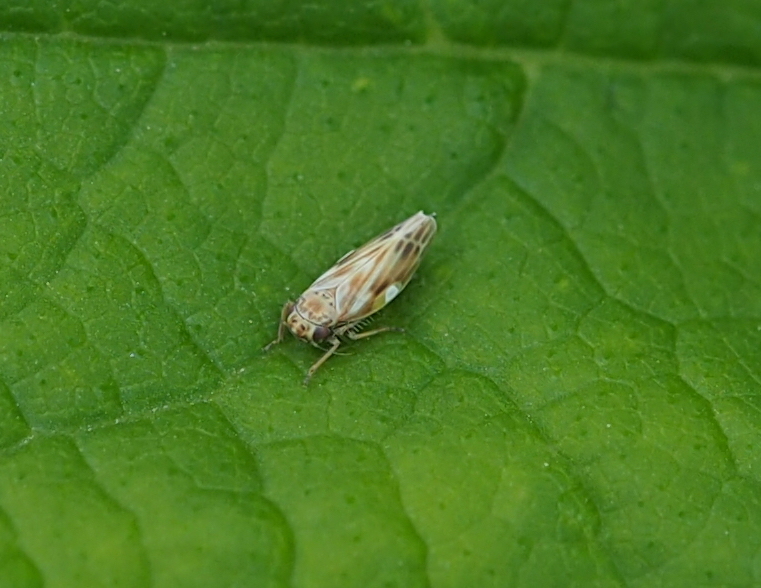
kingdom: Animalia
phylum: Arthropoda
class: Insecta
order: Hemiptera
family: Cicadellidae
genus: Erythria
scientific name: Erythria manderstjernii
